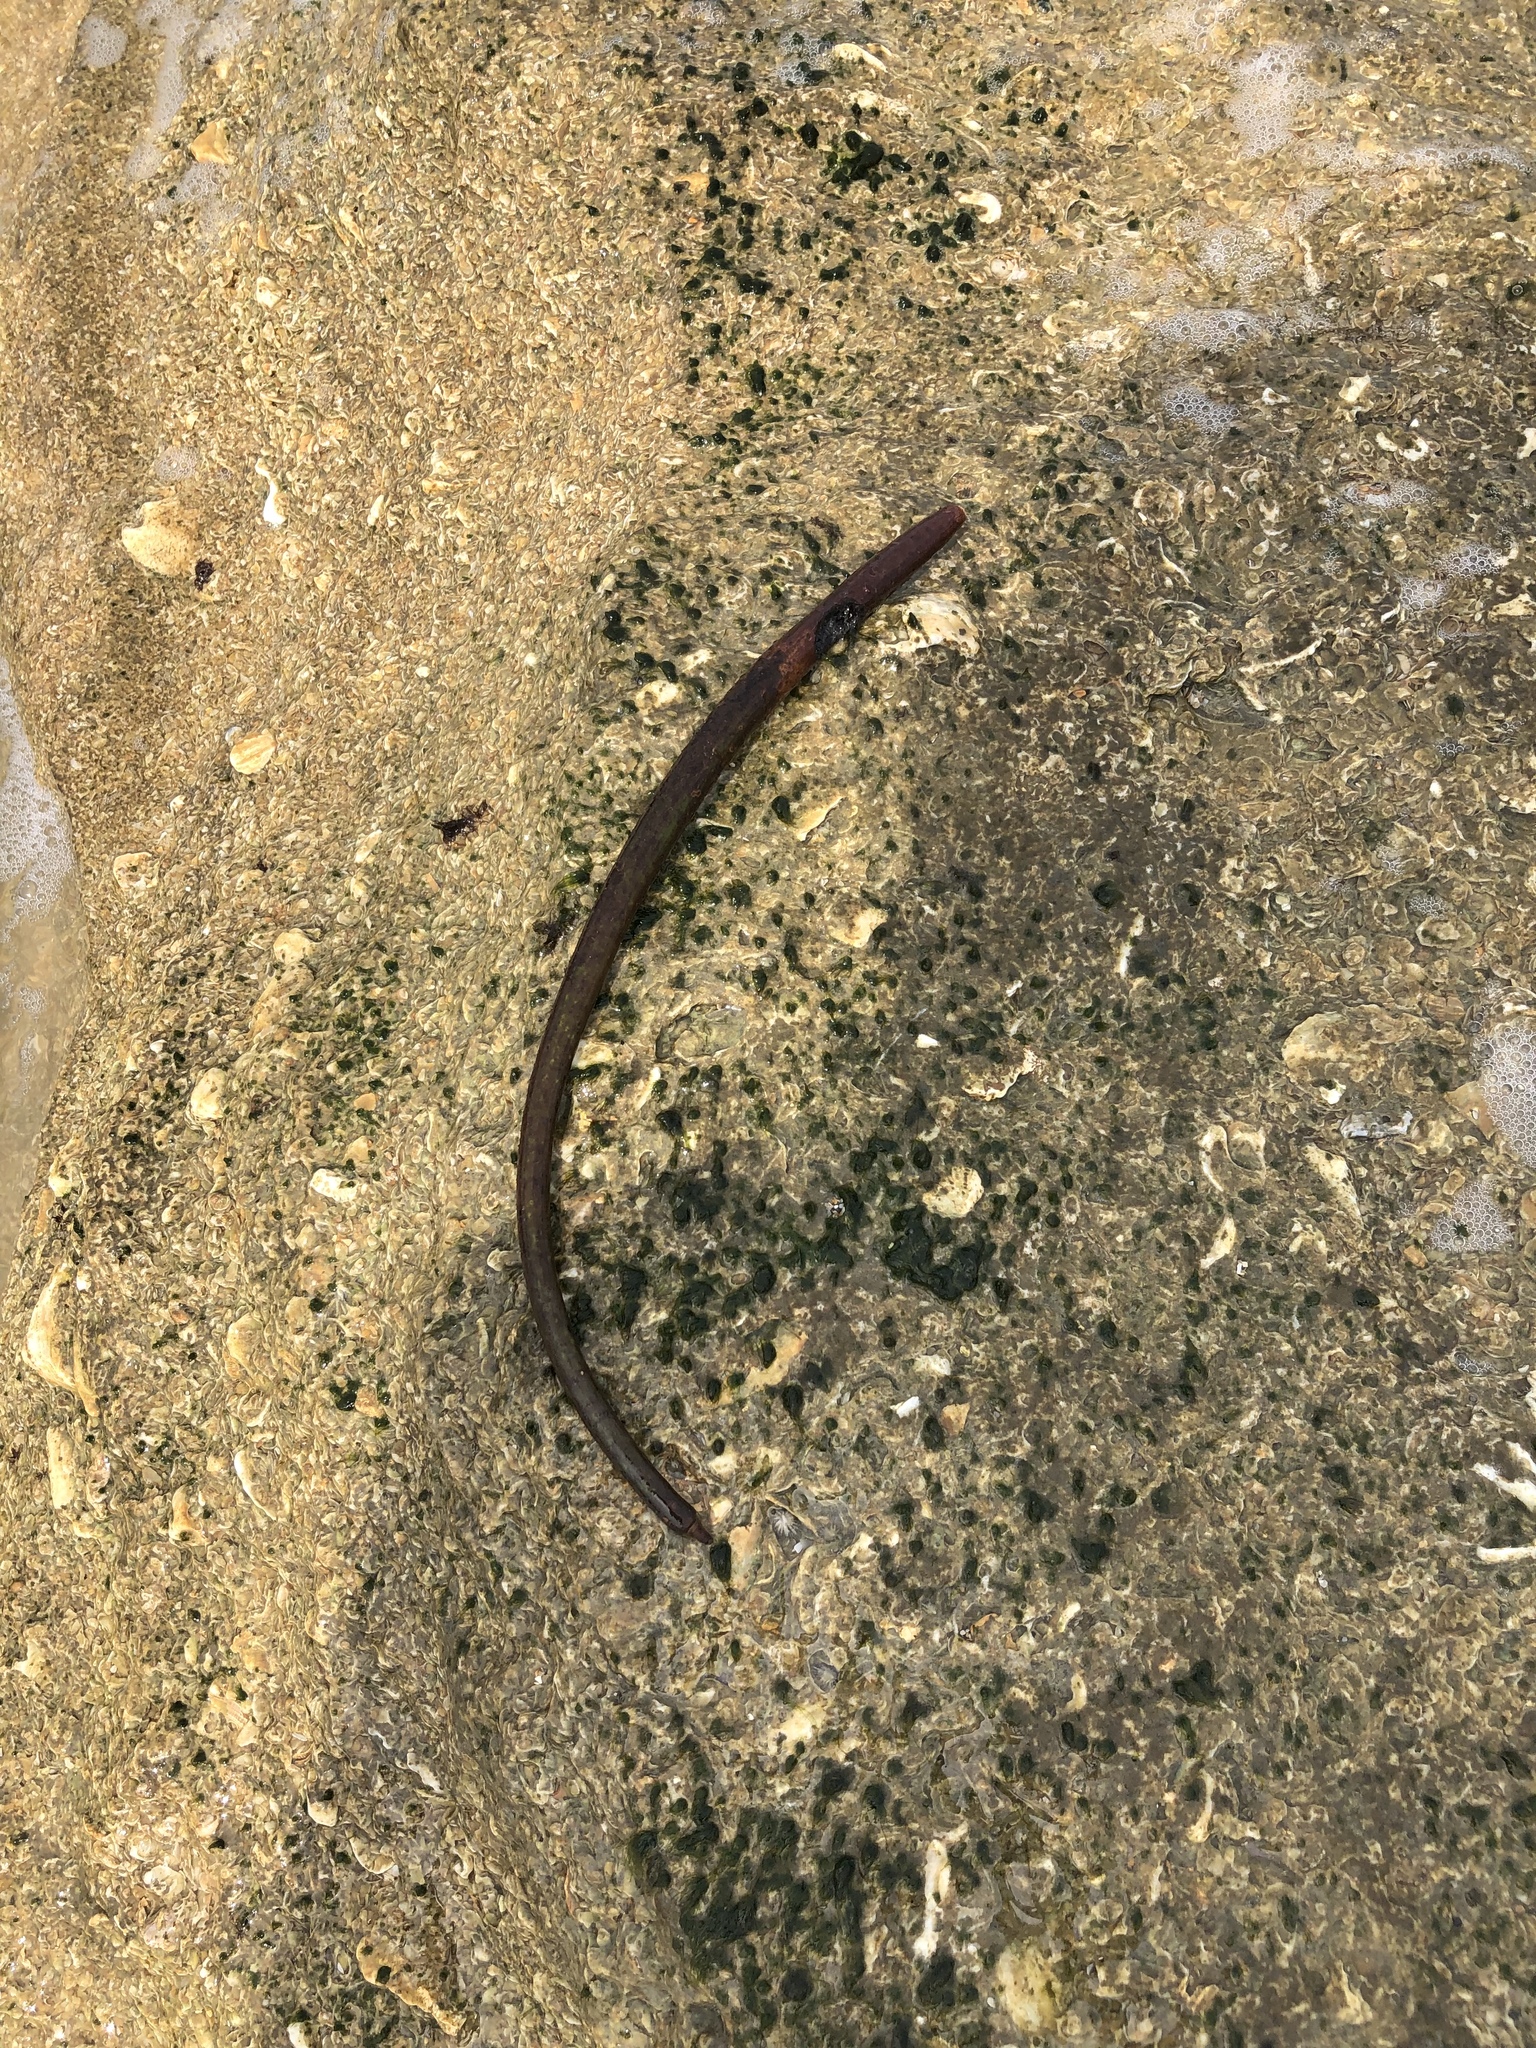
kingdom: Plantae
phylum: Tracheophyta
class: Magnoliopsida
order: Malpighiales
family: Rhizophoraceae
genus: Rhizophora
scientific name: Rhizophora mangle
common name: Red mangrove
